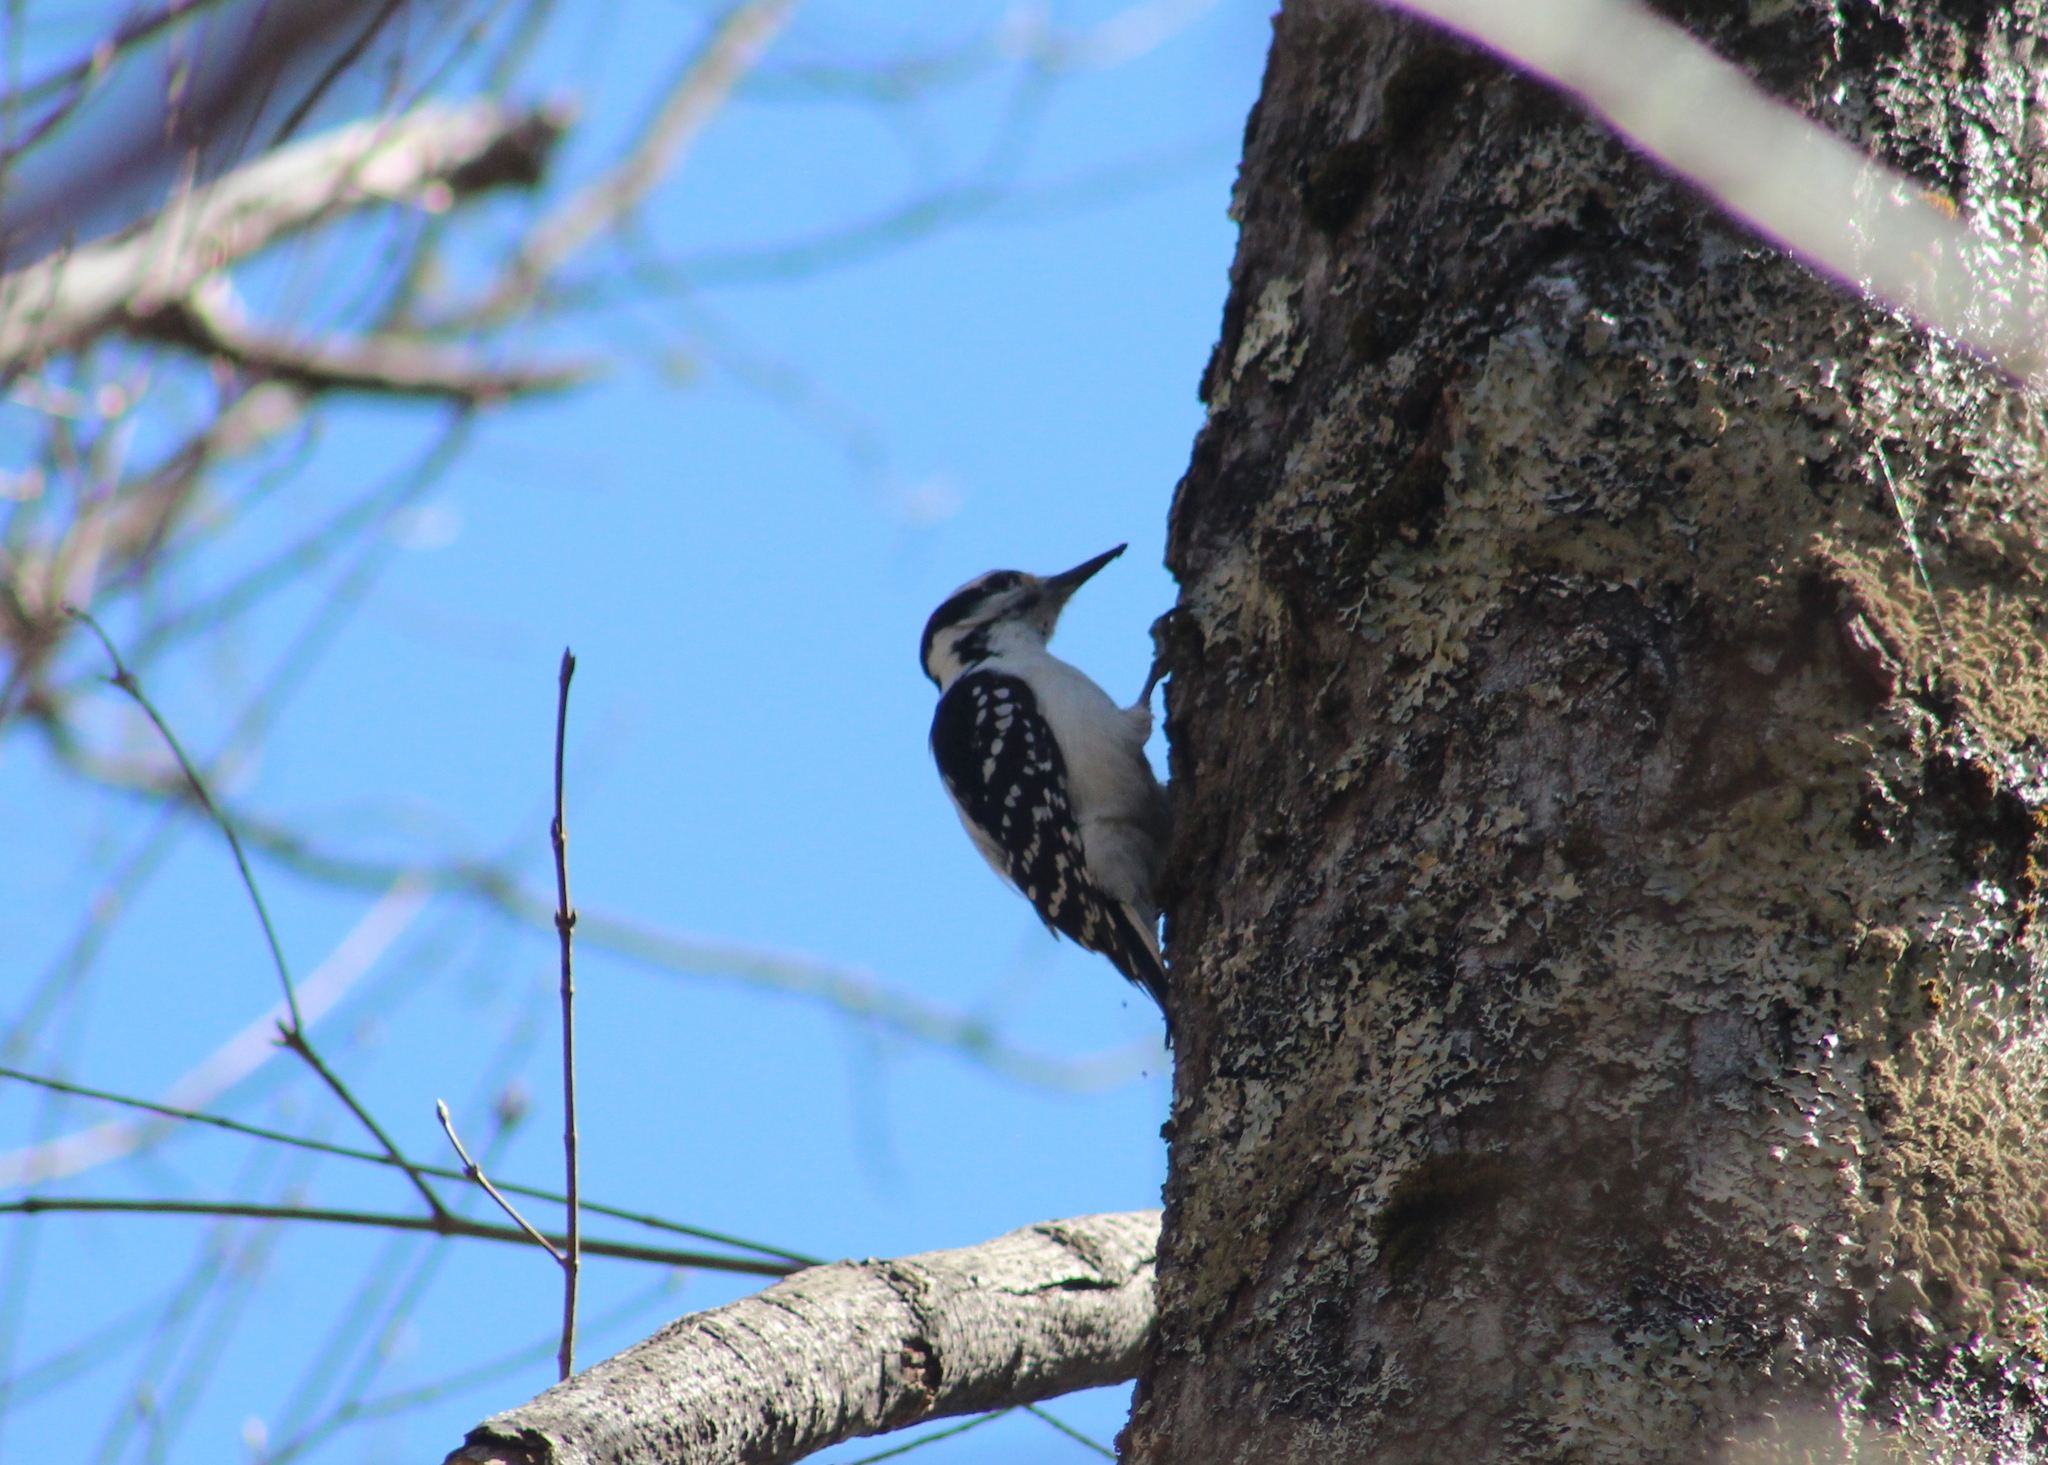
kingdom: Animalia
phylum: Chordata
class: Aves
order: Piciformes
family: Picidae
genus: Leuconotopicus
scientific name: Leuconotopicus villosus
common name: Hairy woodpecker
